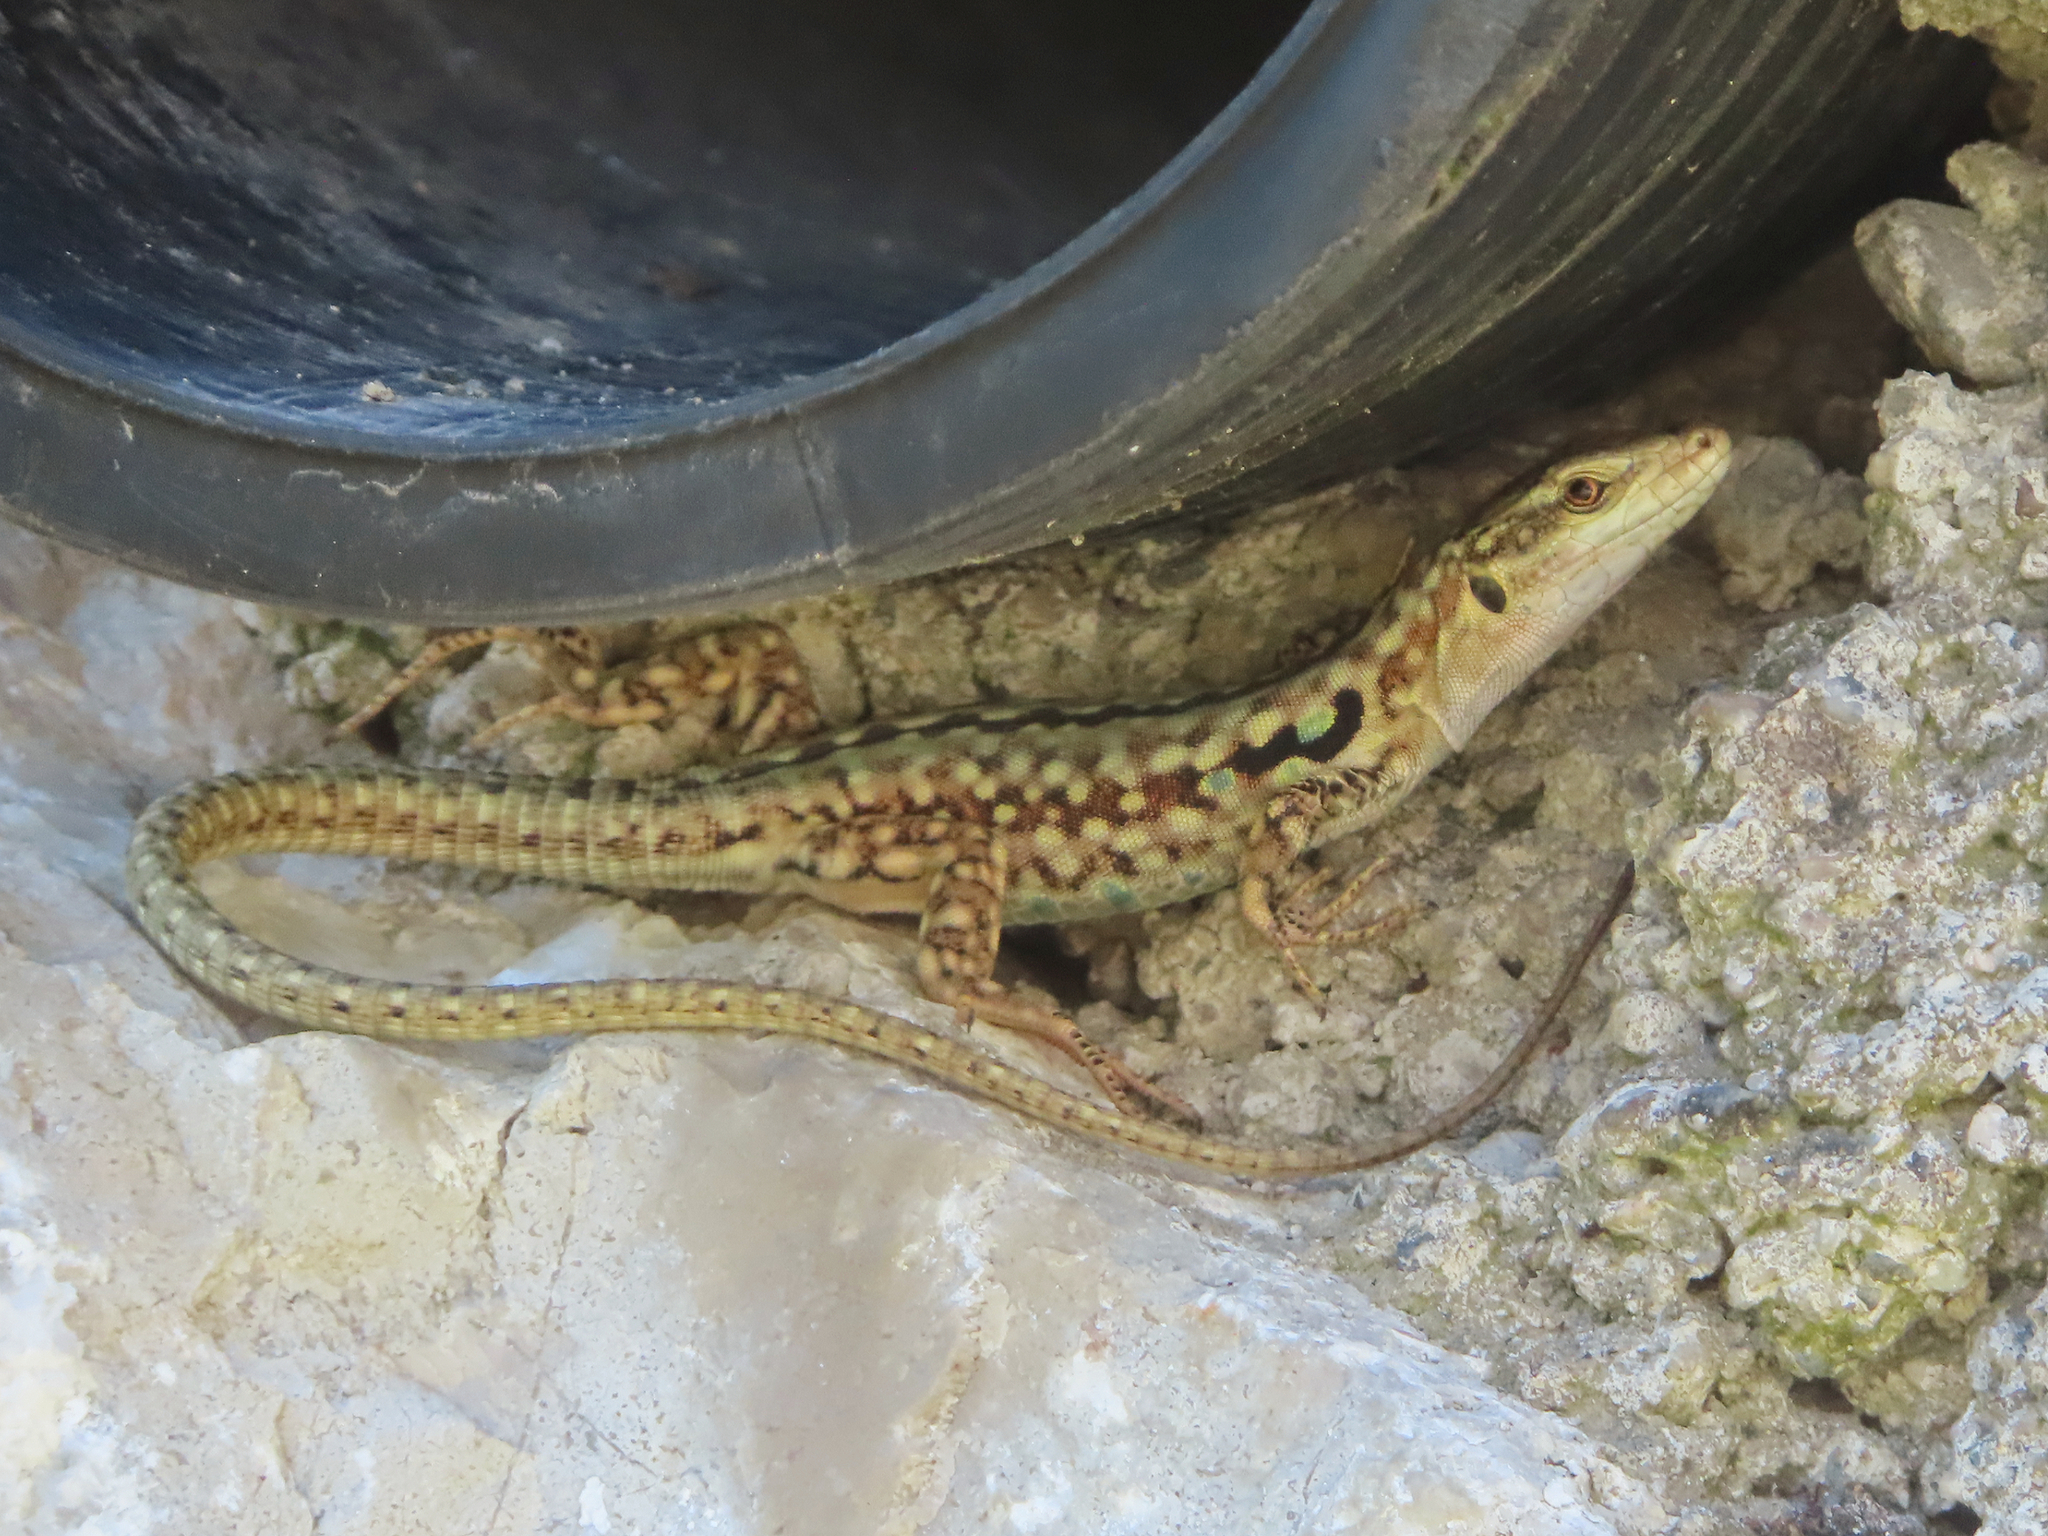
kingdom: Animalia
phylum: Chordata
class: Squamata
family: Lacertidae
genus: Podarcis
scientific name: Podarcis siculus
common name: Italian wall lizard
